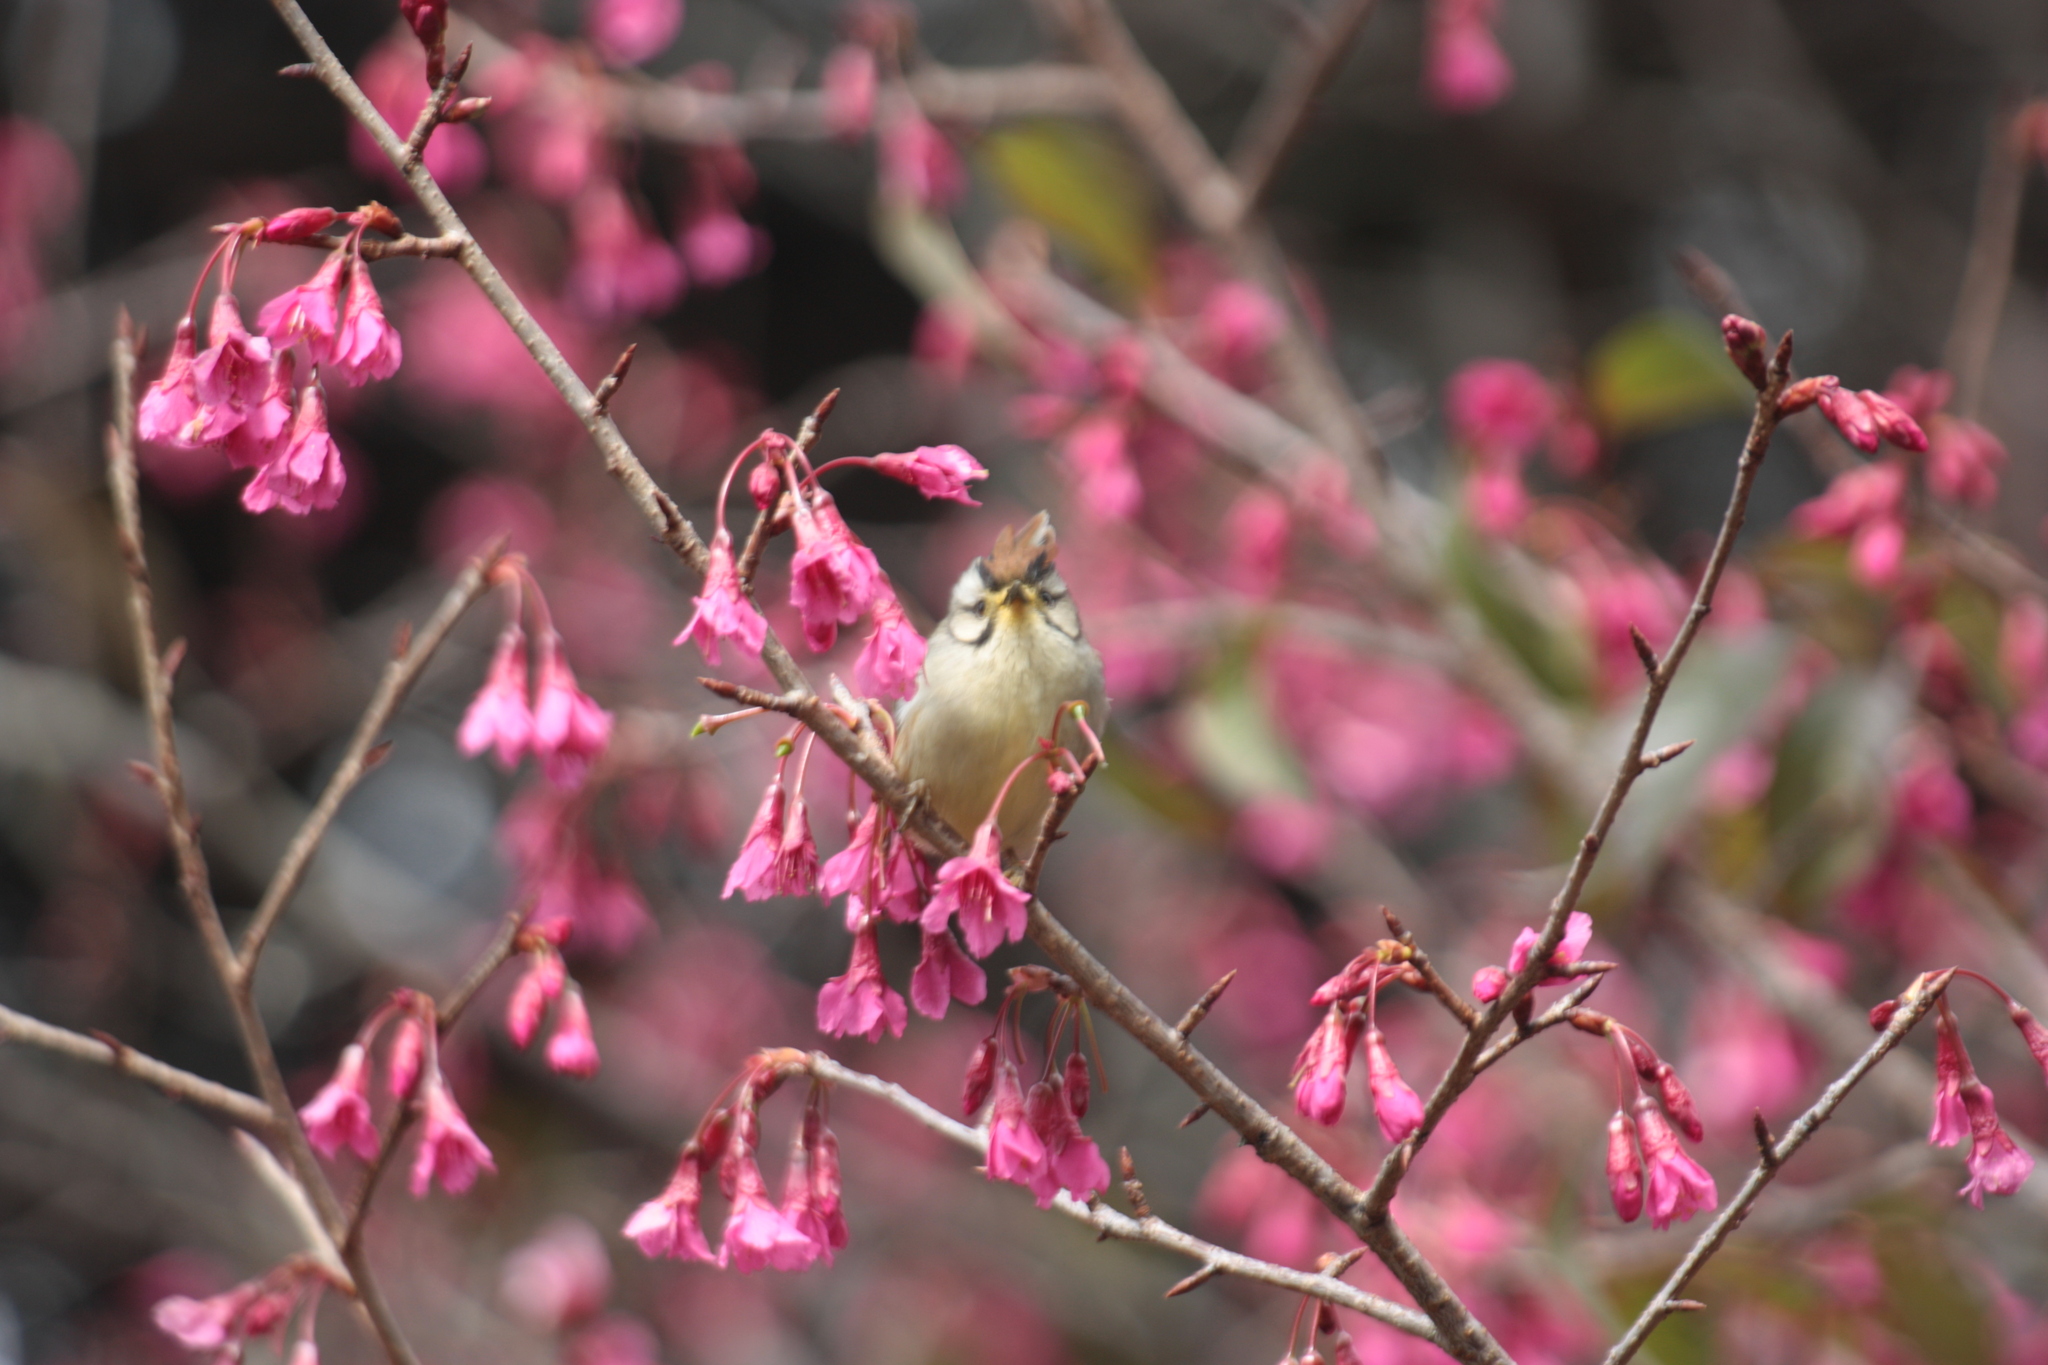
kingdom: Animalia
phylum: Chordata
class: Aves
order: Passeriformes
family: Zosteropidae
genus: Yuhina
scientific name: Yuhina brunneiceps
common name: Taiwan yuhina
